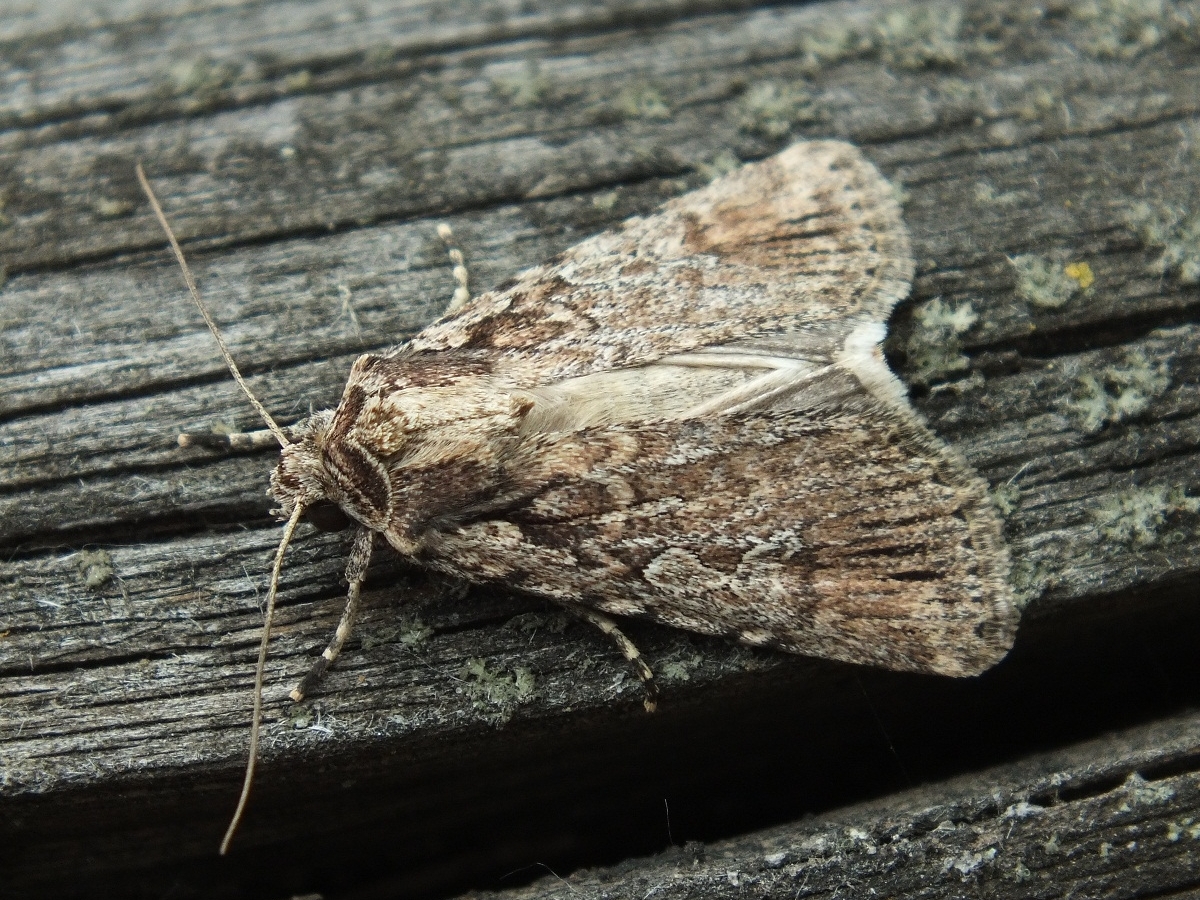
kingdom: Animalia
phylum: Arthropoda
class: Insecta
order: Lepidoptera
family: Noctuidae
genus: Yigoga
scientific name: Yigoga signifera
